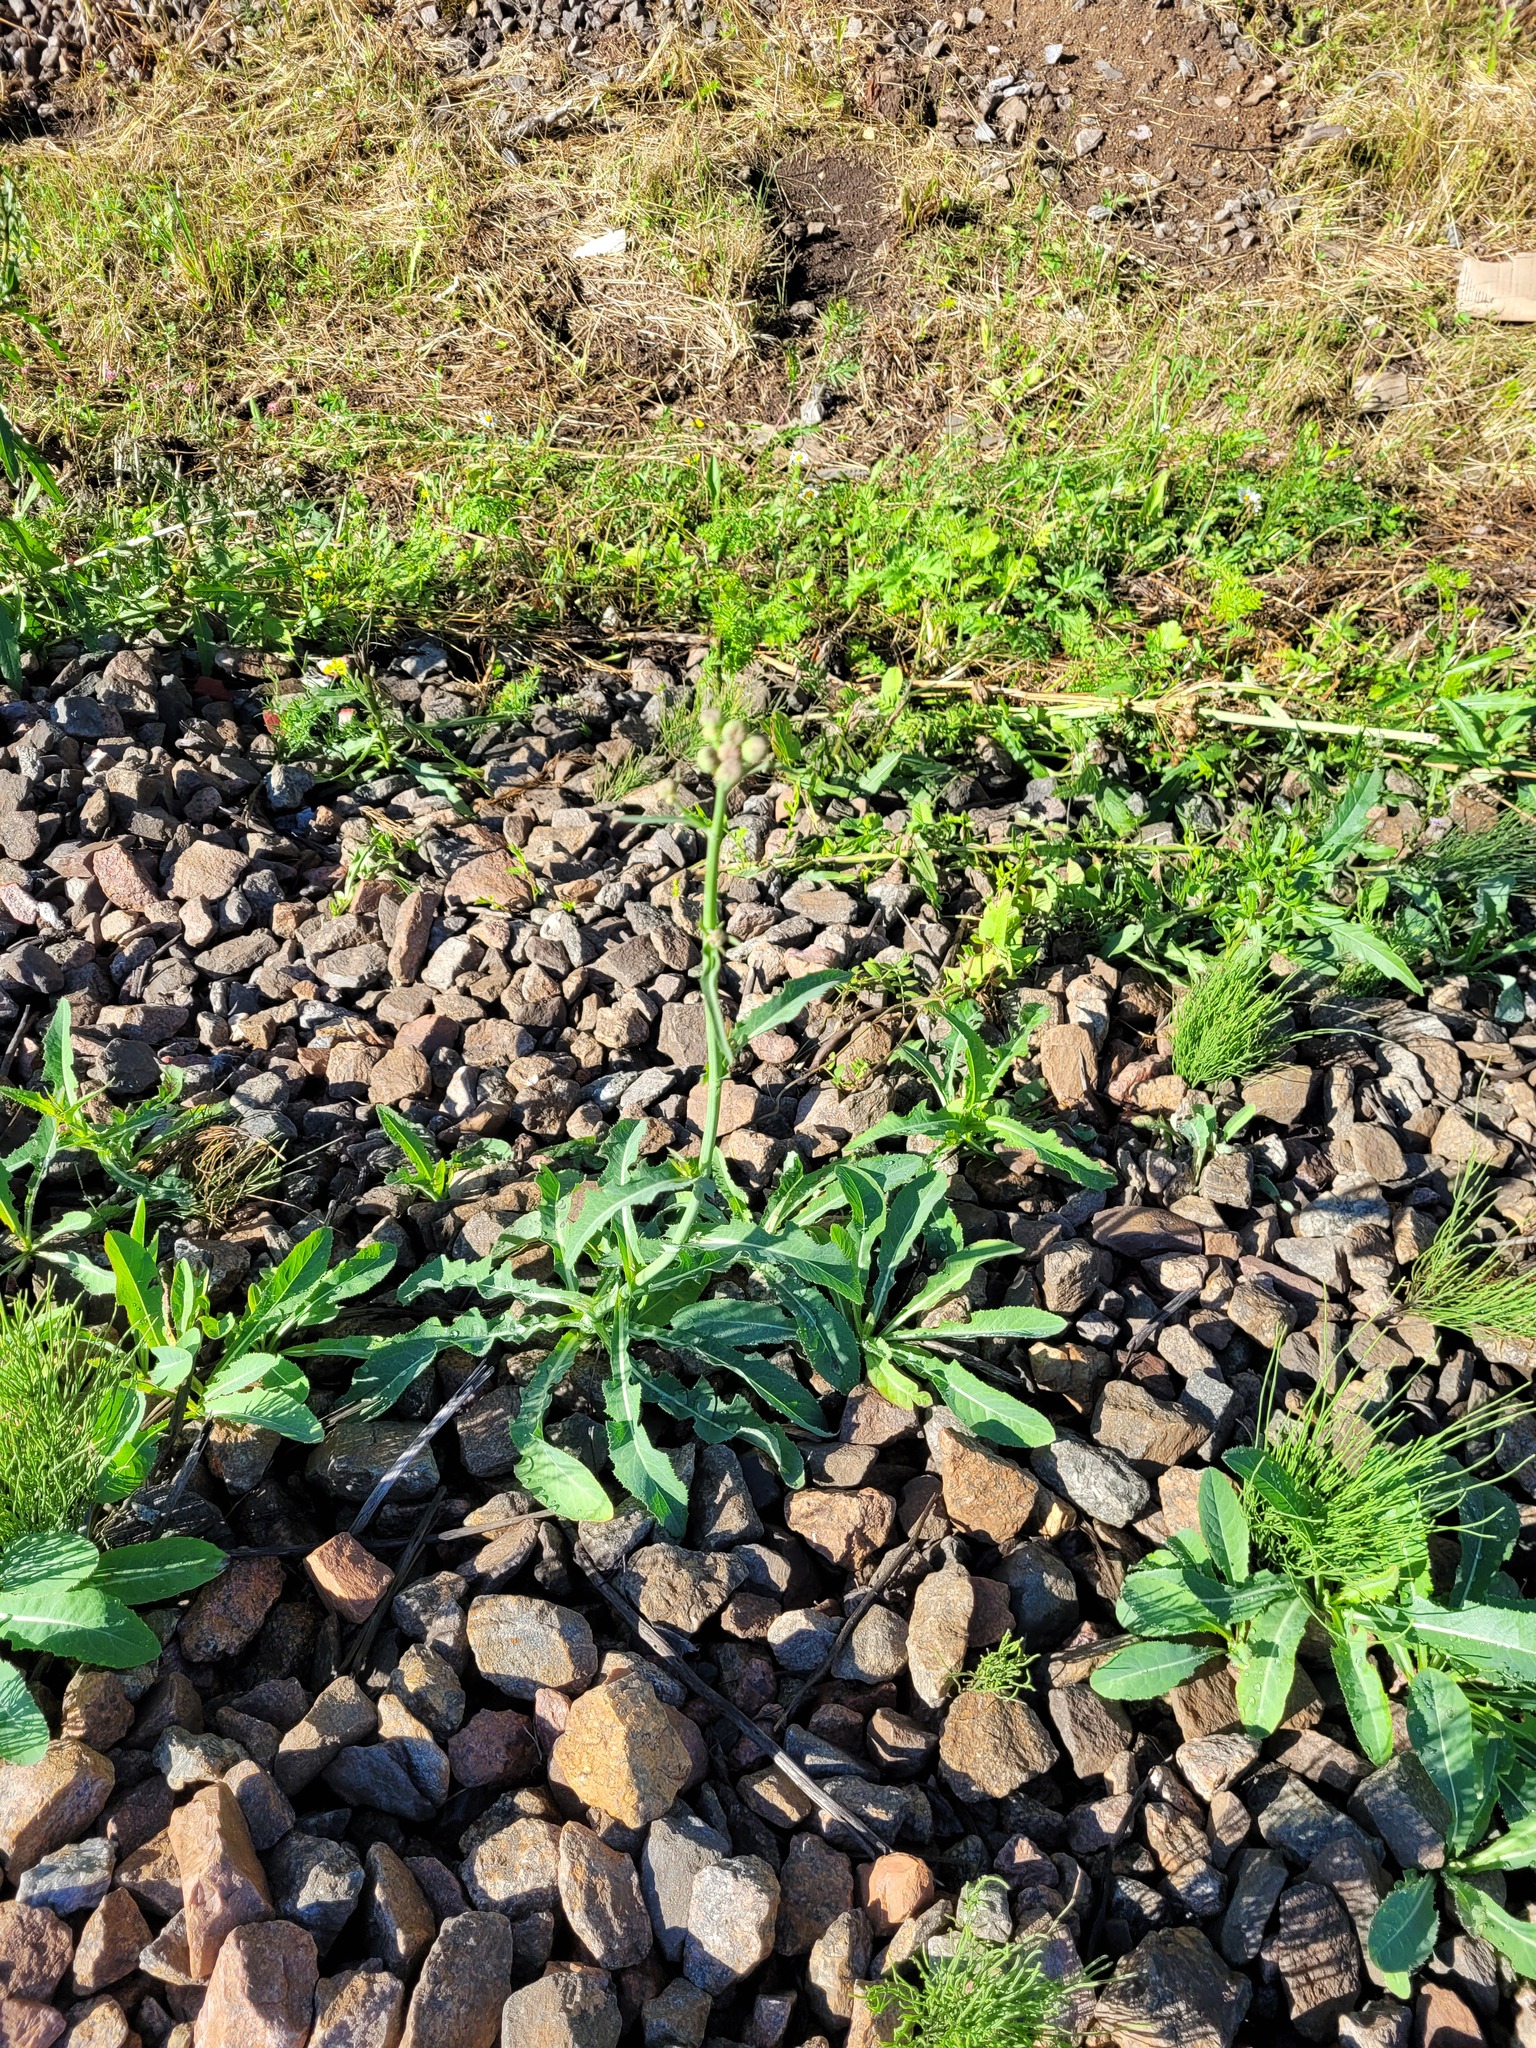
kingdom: Plantae
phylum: Tracheophyta
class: Magnoliopsida
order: Asterales
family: Asteraceae
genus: Sonchus
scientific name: Sonchus arvensis
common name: Perennial sow-thistle
